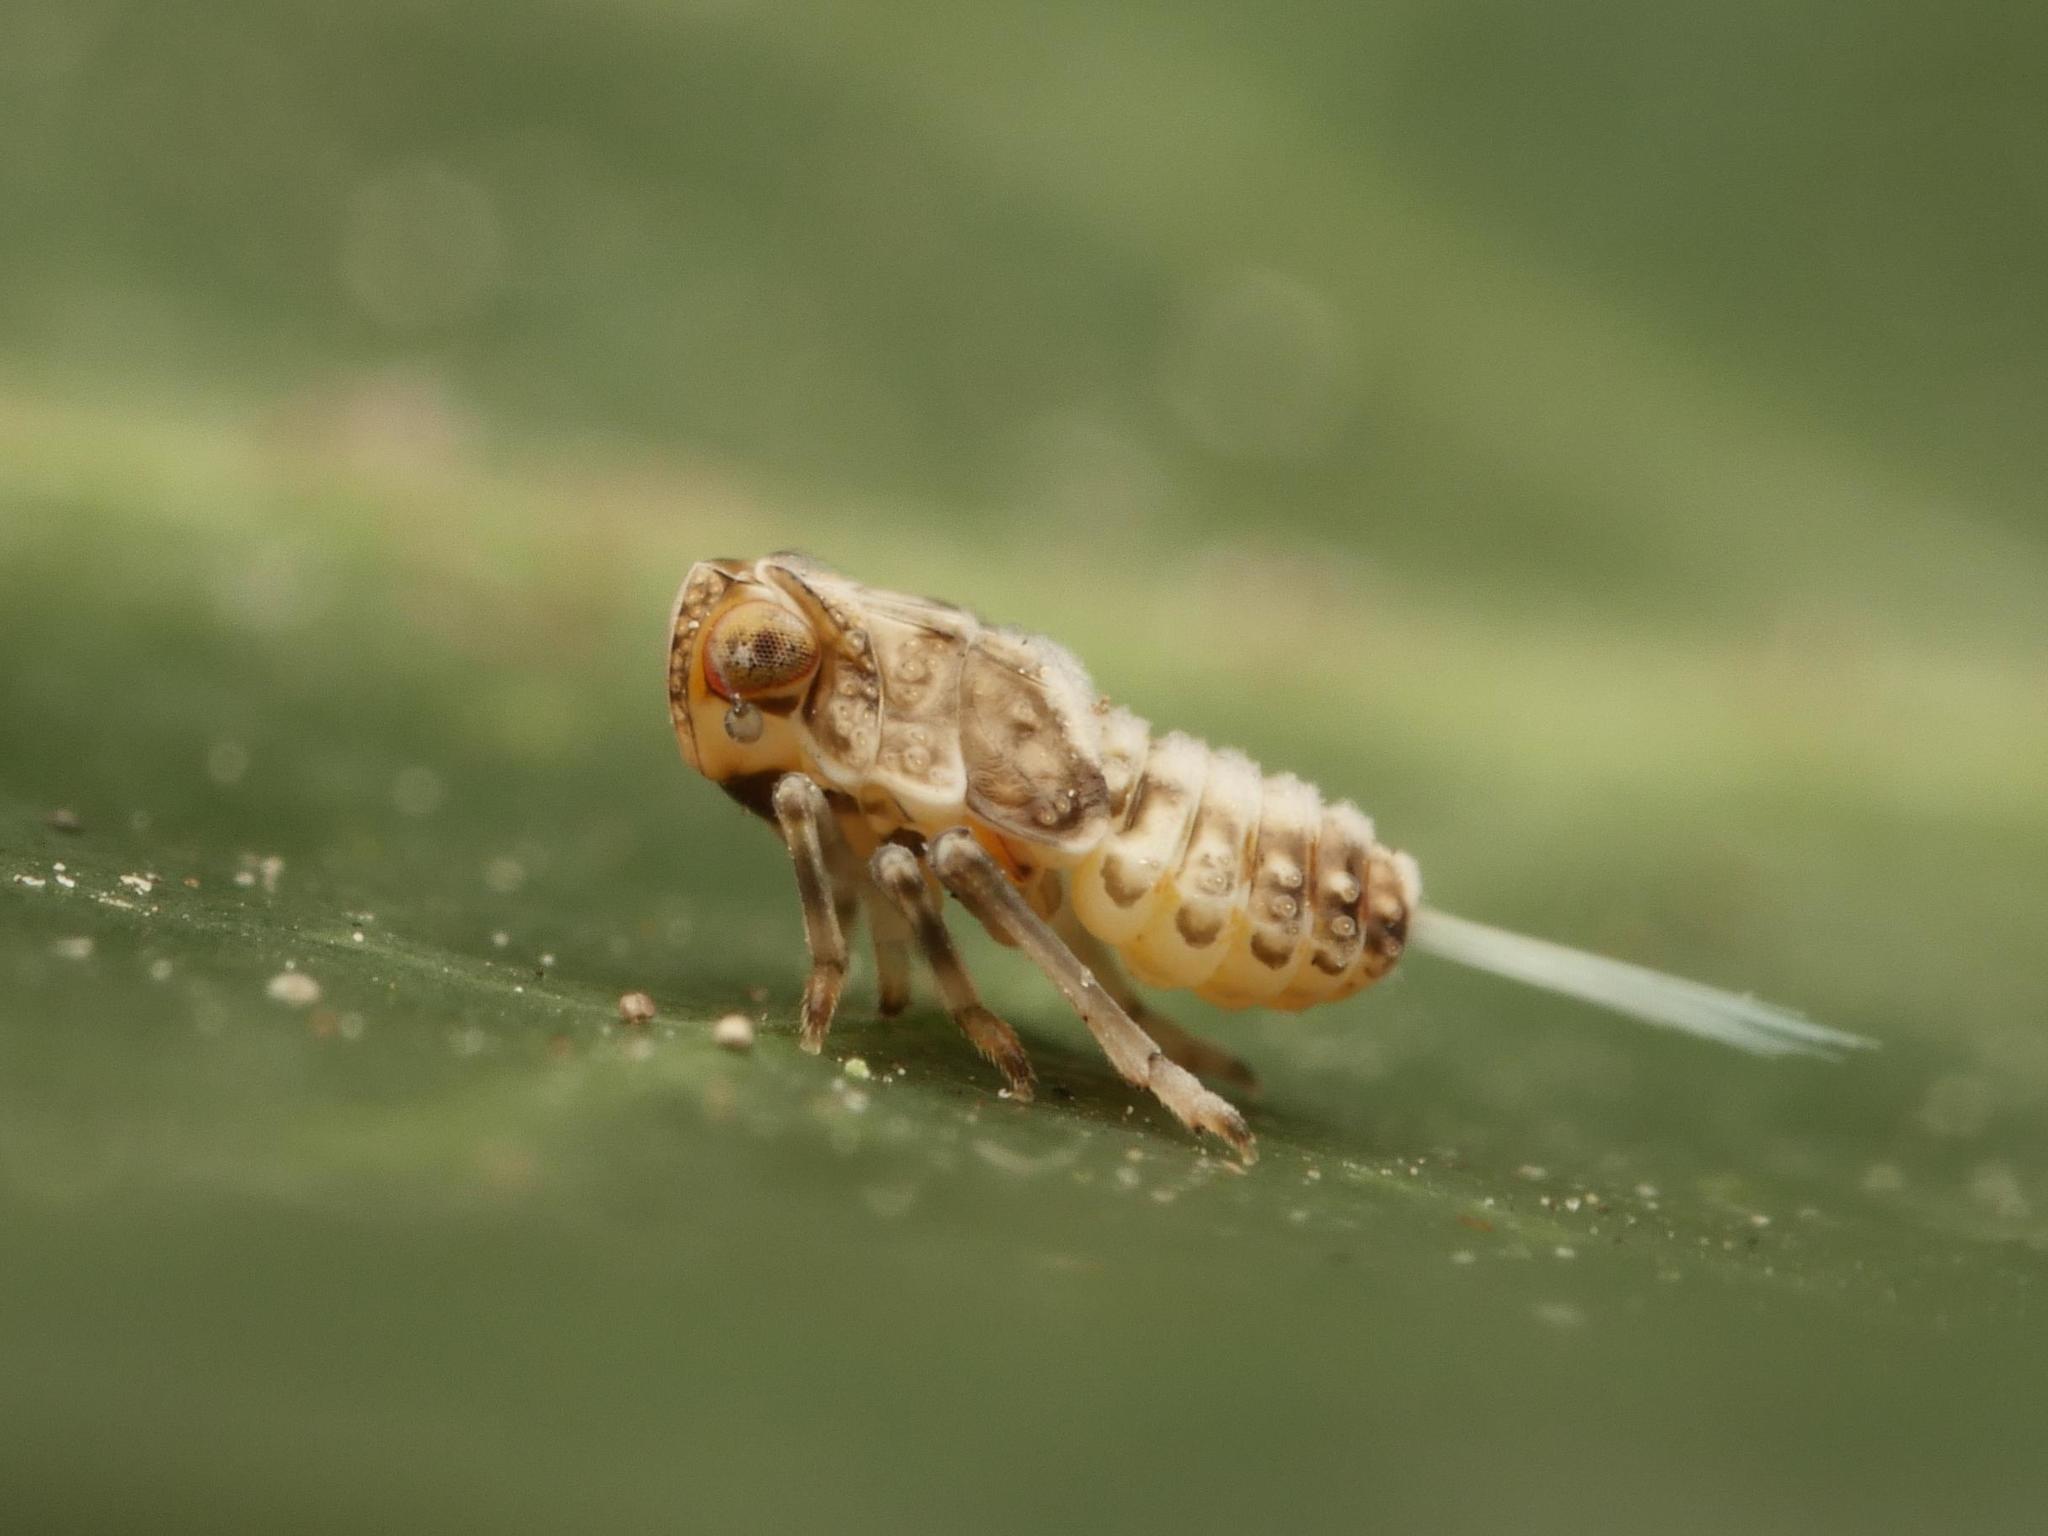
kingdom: Animalia
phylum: Arthropoda
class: Insecta
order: Hemiptera
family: Issidae
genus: Issus
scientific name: Issus coleoptratus
